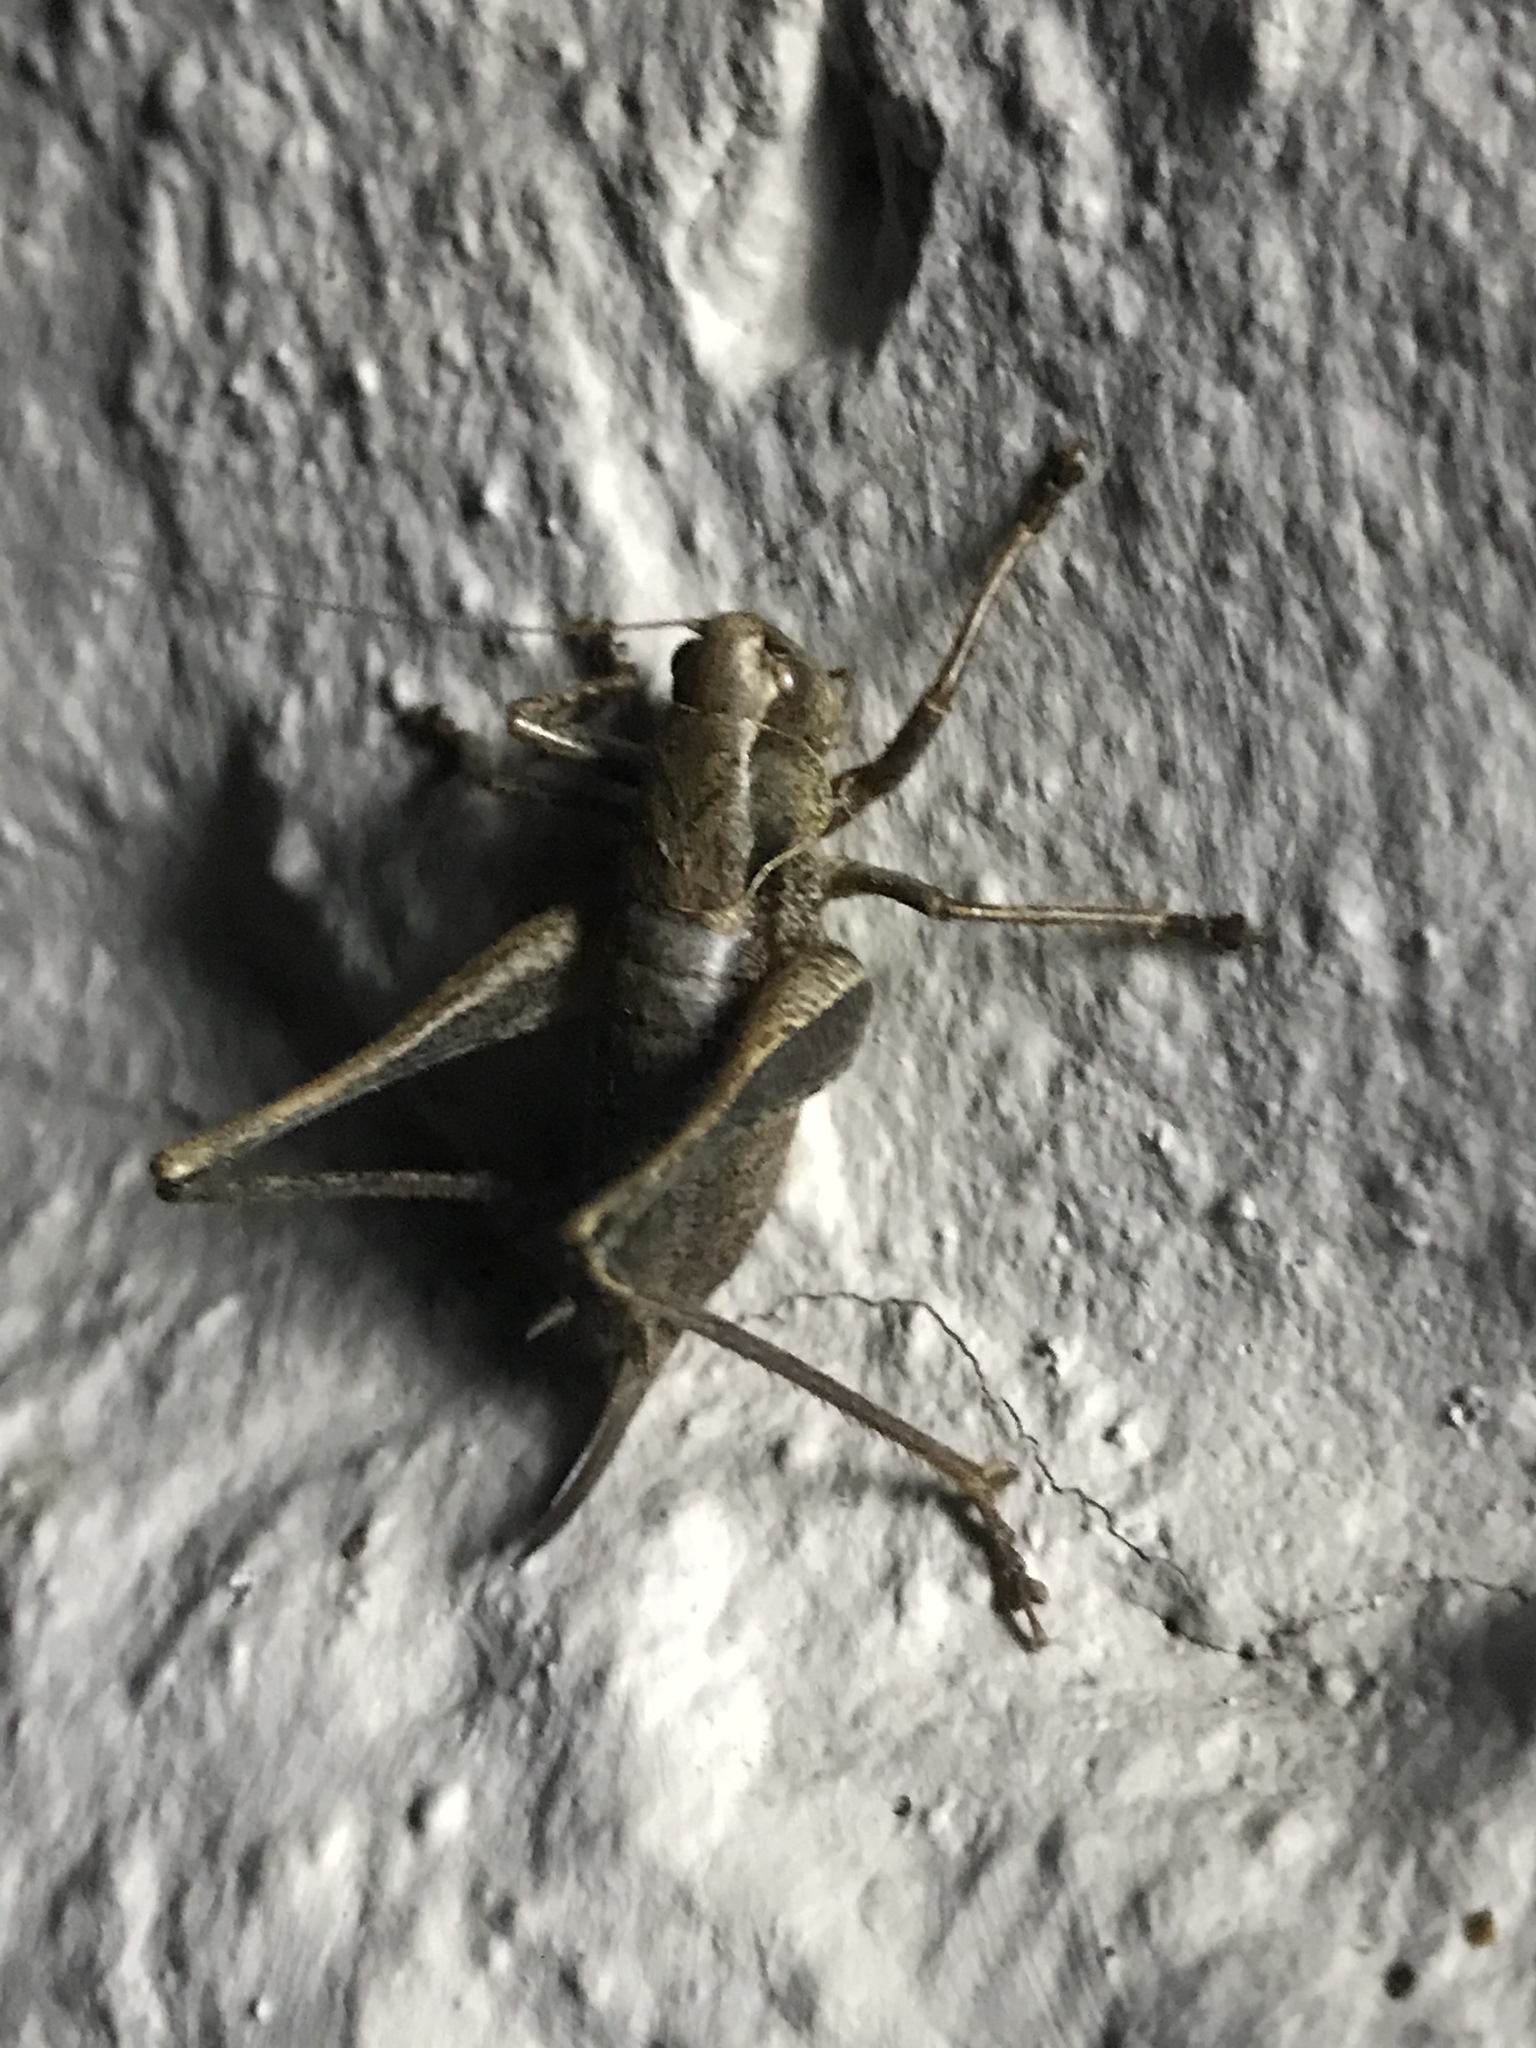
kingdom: Animalia
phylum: Arthropoda
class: Insecta
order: Orthoptera
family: Tettigoniidae
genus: Pholidoptera
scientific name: Pholidoptera griseoaptera
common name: Dark bush-cricket
